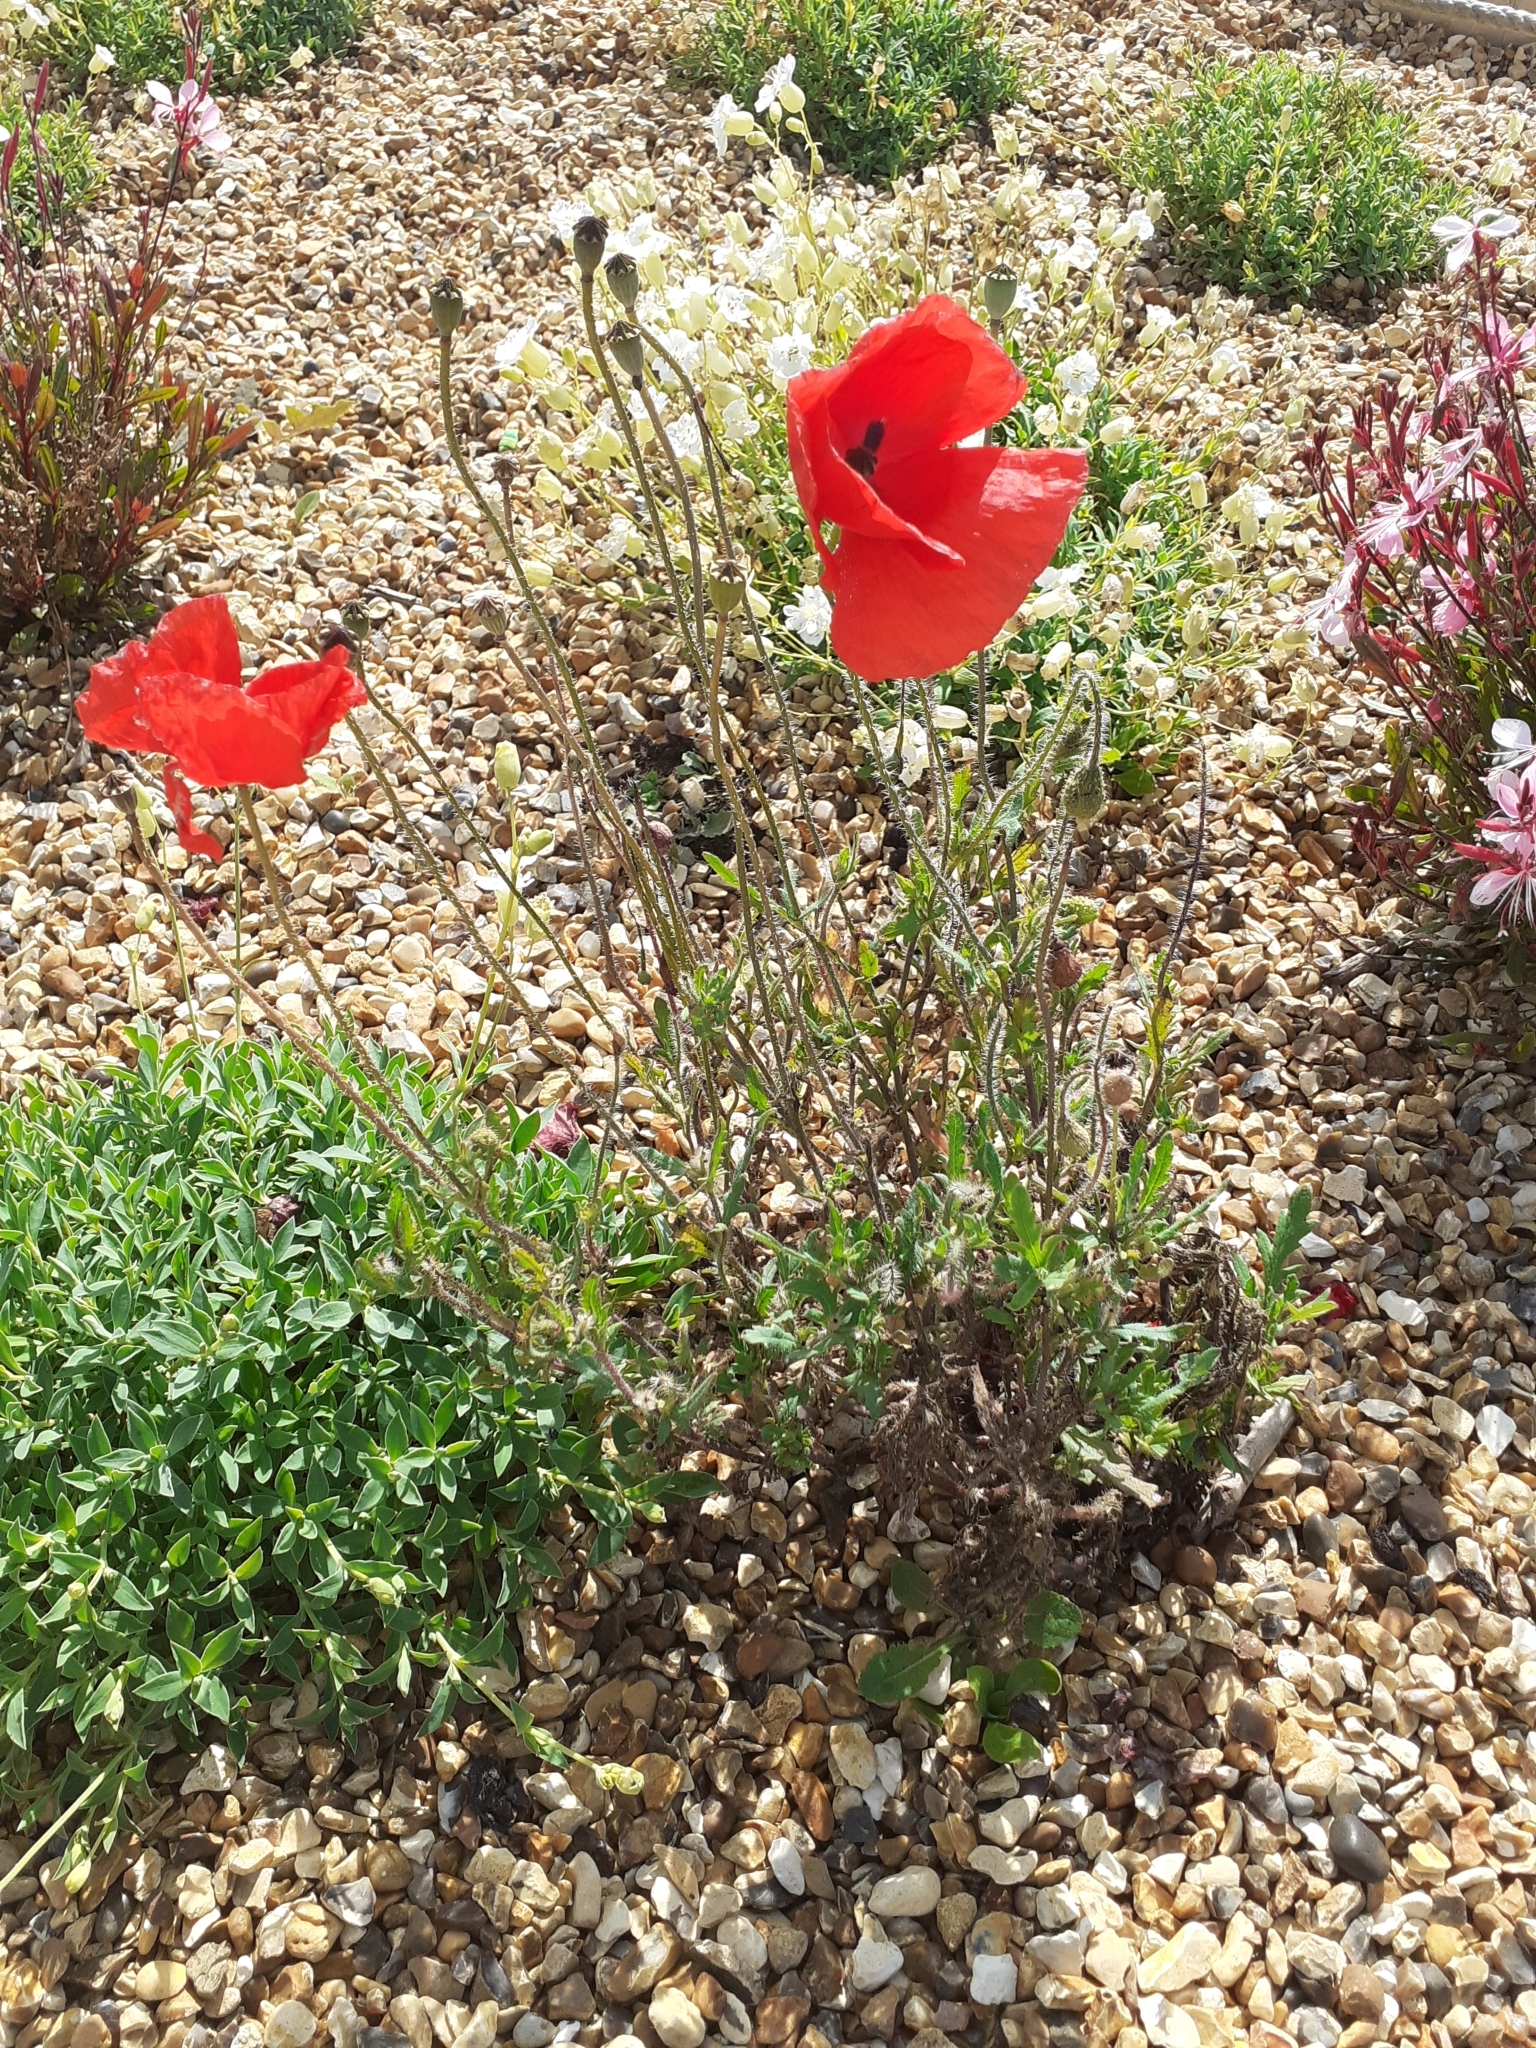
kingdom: Plantae
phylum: Tracheophyta
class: Magnoliopsida
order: Ranunculales
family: Papaveraceae
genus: Papaver
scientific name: Papaver rhoeas
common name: Corn poppy
